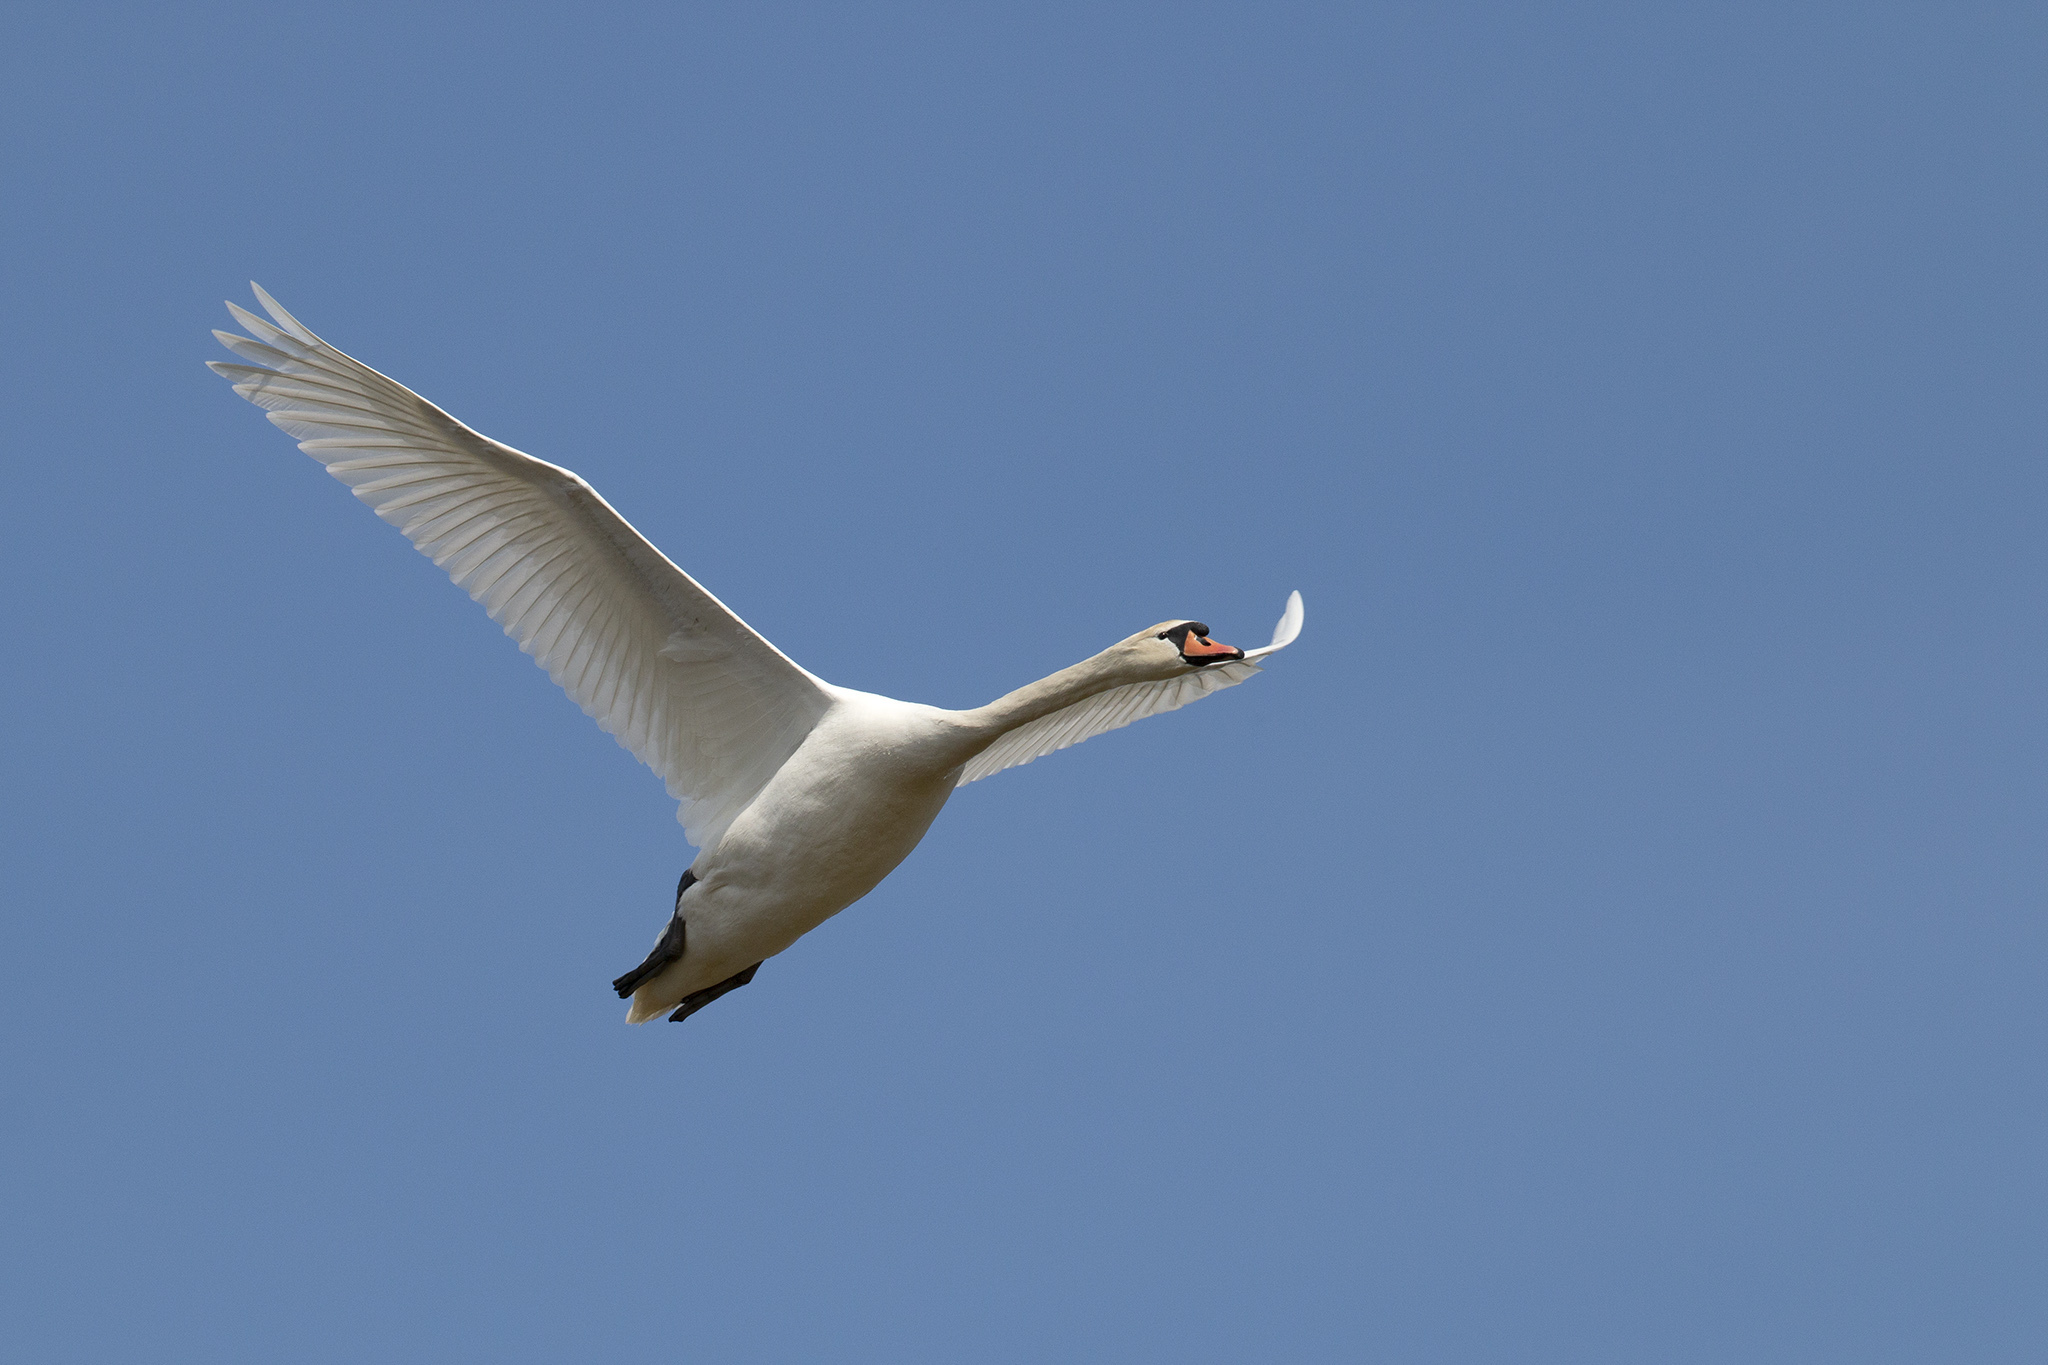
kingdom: Animalia
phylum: Chordata
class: Aves
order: Anseriformes
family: Anatidae
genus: Cygnus
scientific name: Cygnus olor
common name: Mute swan
